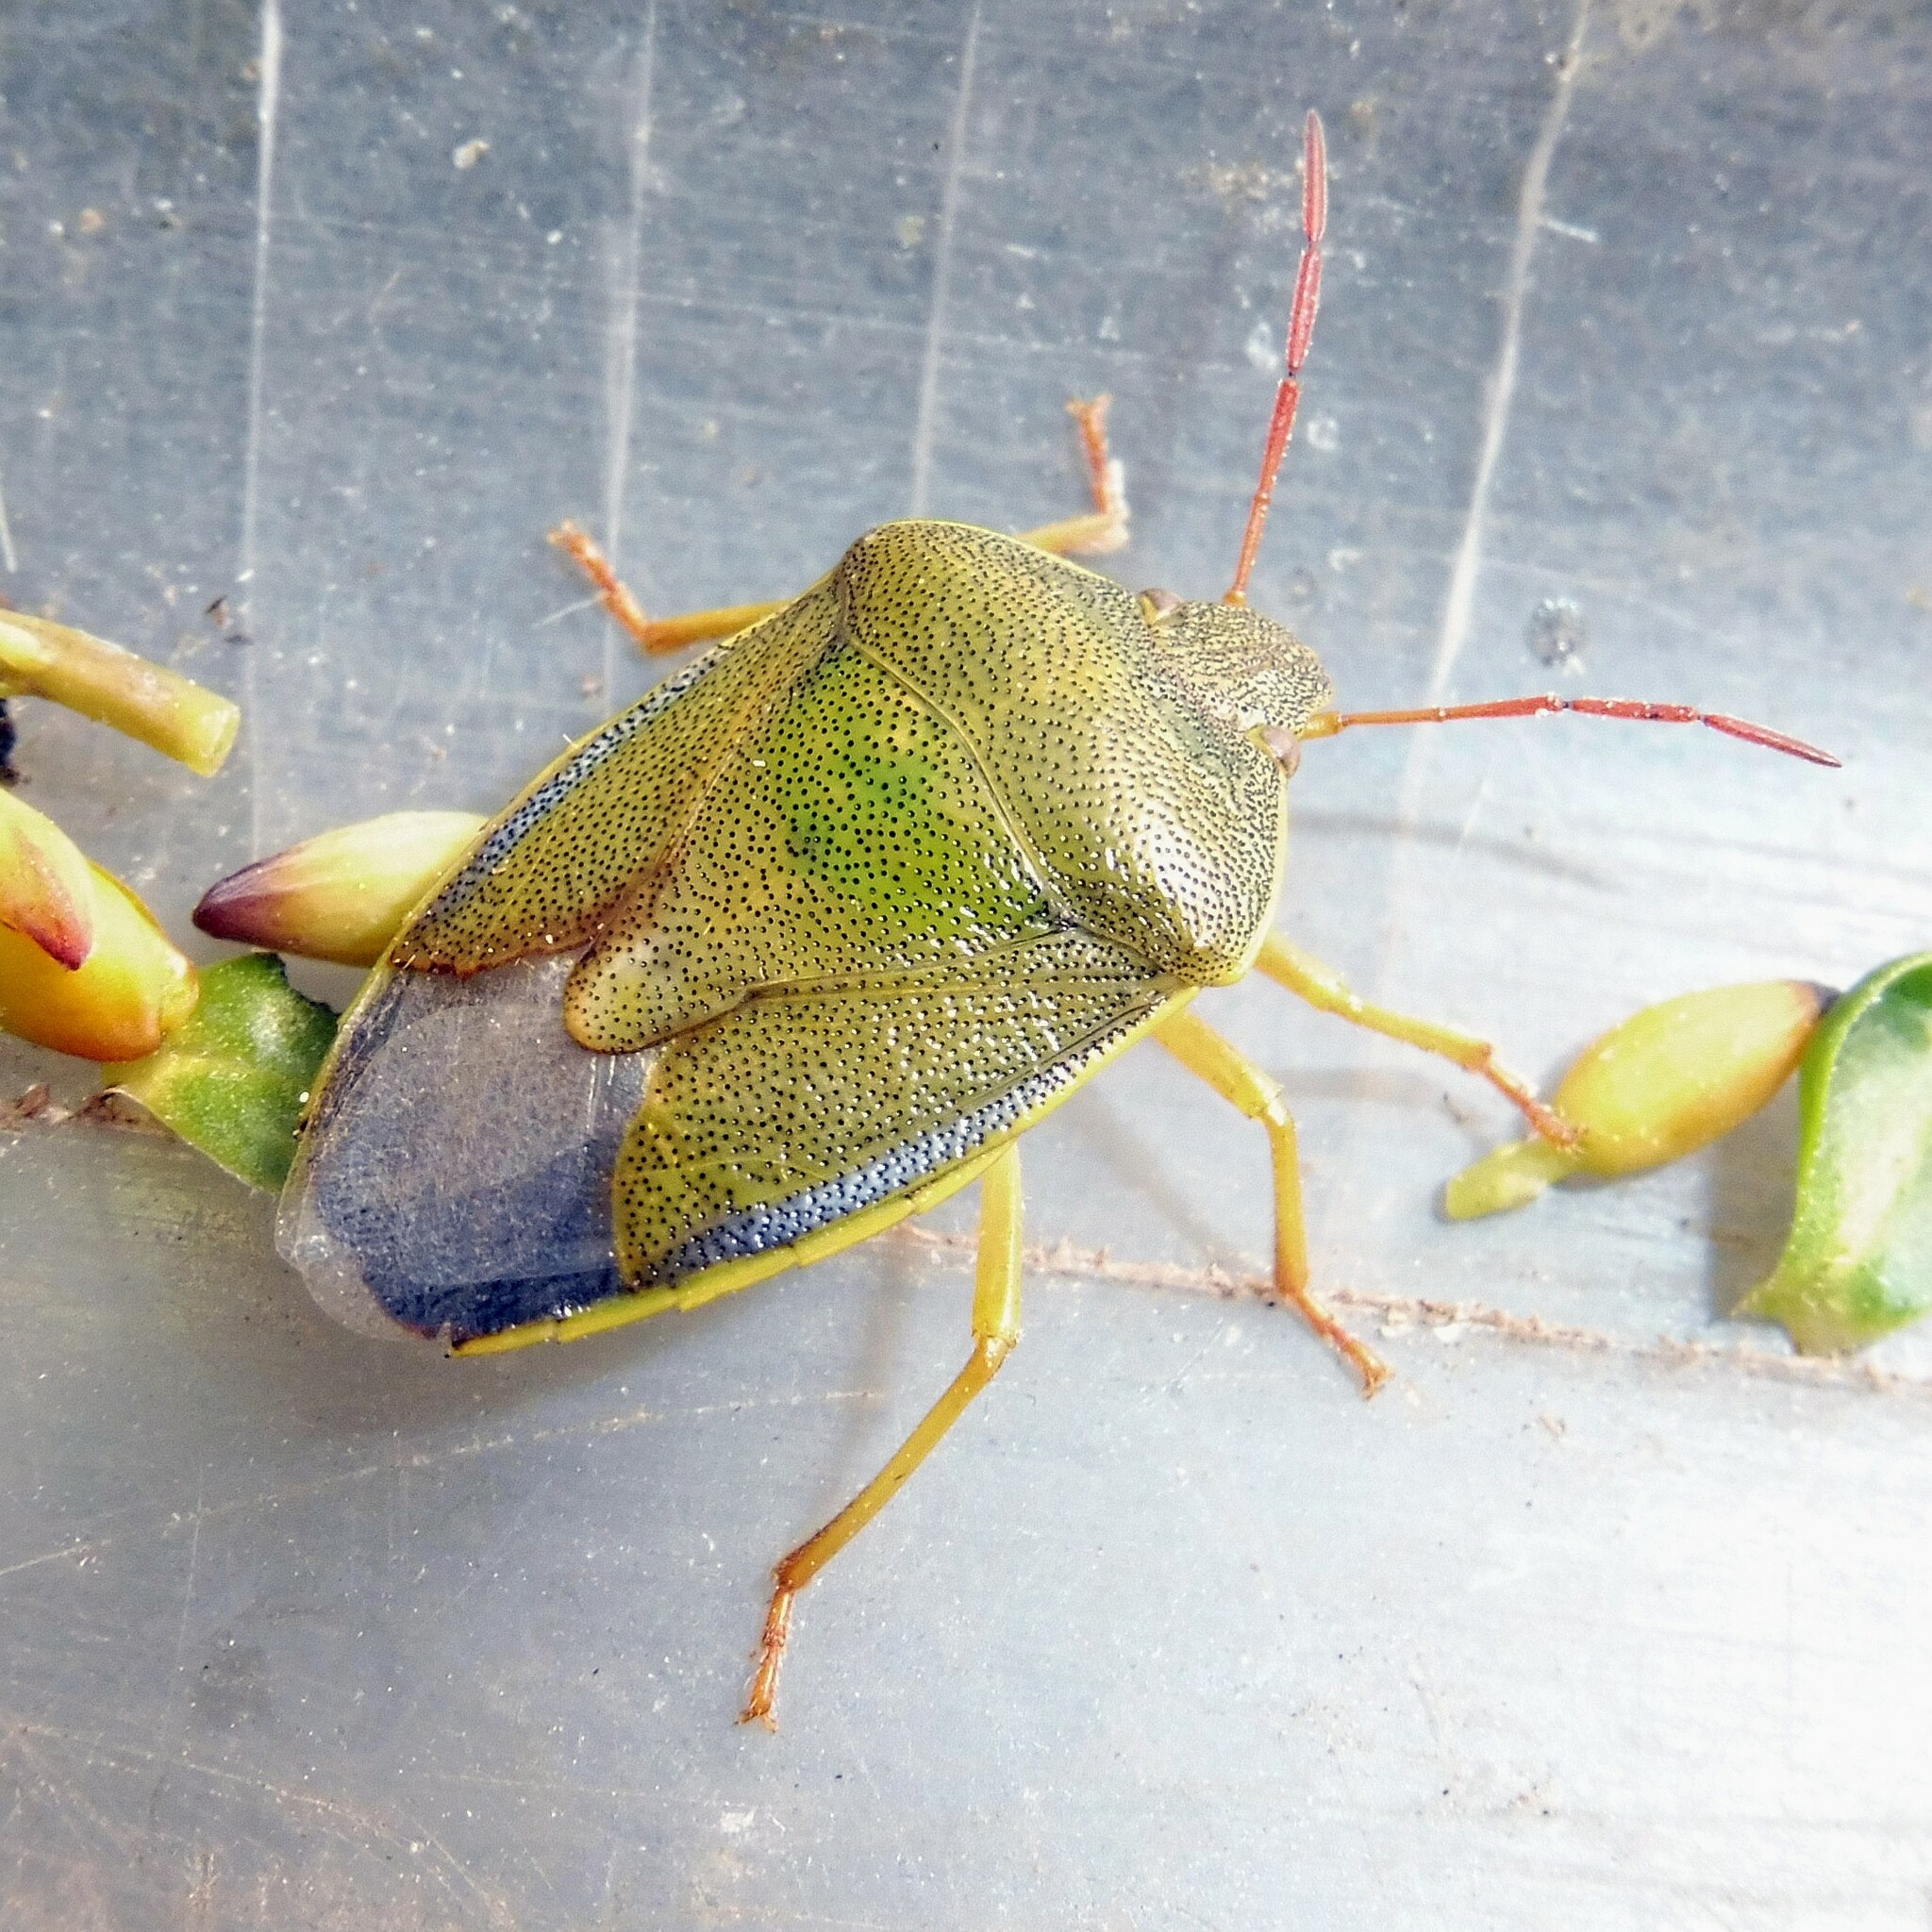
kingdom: Animalia
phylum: Arthropoda
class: Insecta
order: Hemiptera
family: Pentatomidae
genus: Piezodorus
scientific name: Piezodorus lituratus
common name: Stink bug
